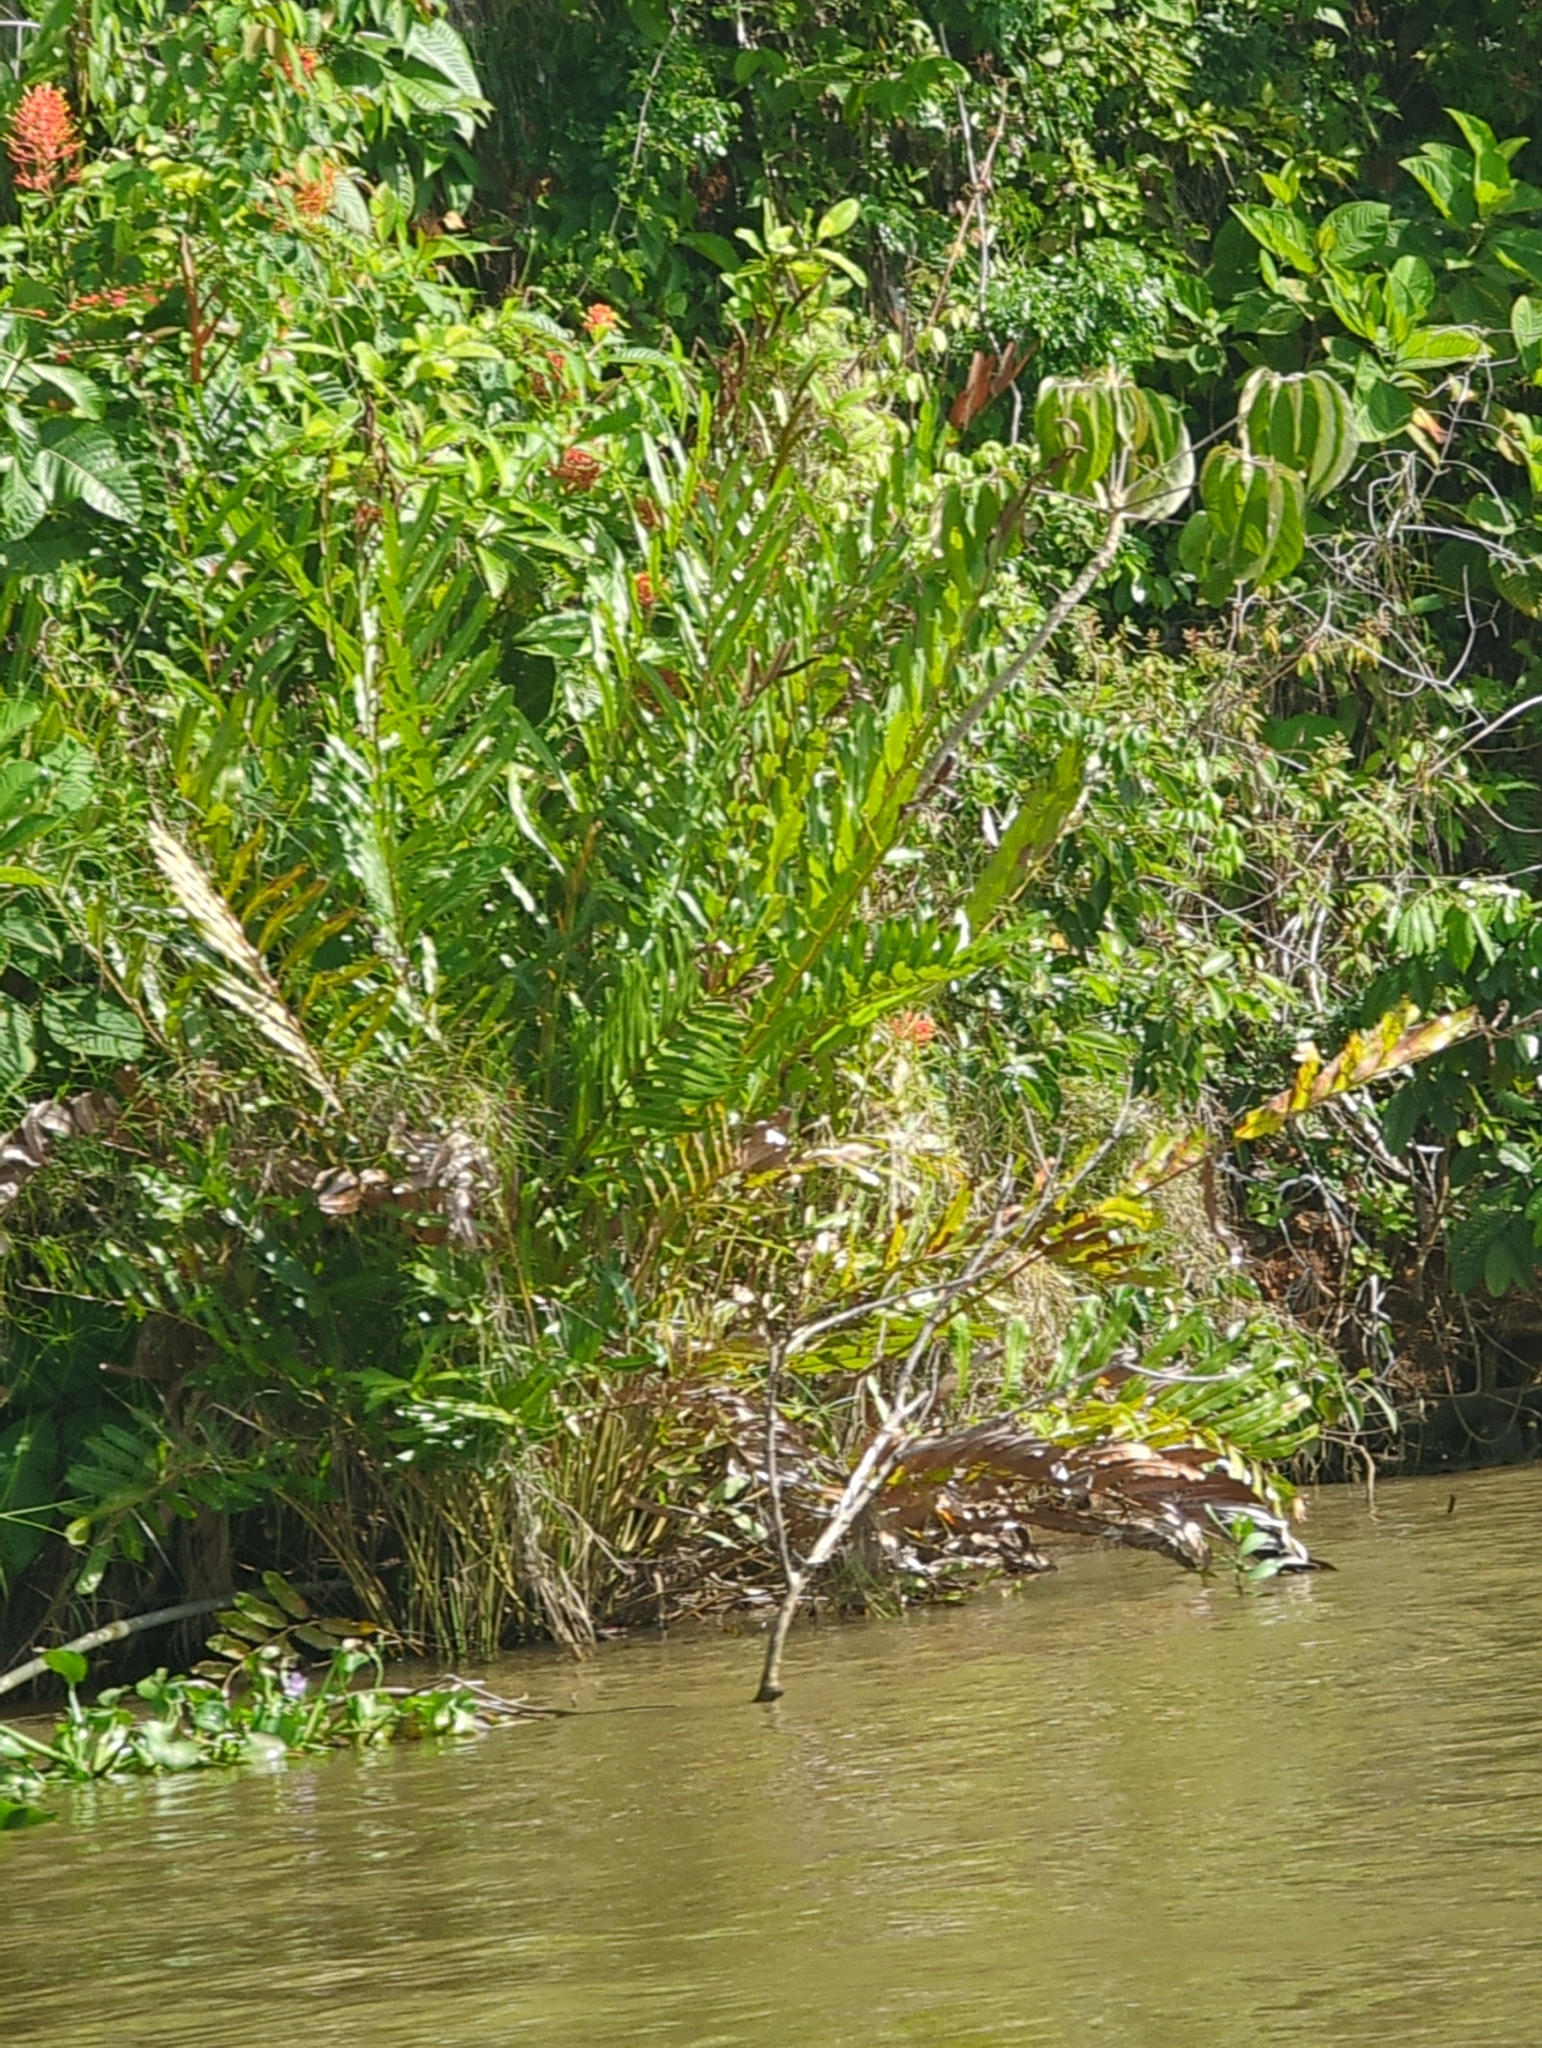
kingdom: Plantae
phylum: Tracheophyta
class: Polypodiopsida
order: Polypodiales
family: Pteridaceae
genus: Acrostichum
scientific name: Acrostichum aureum
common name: Leather fern
